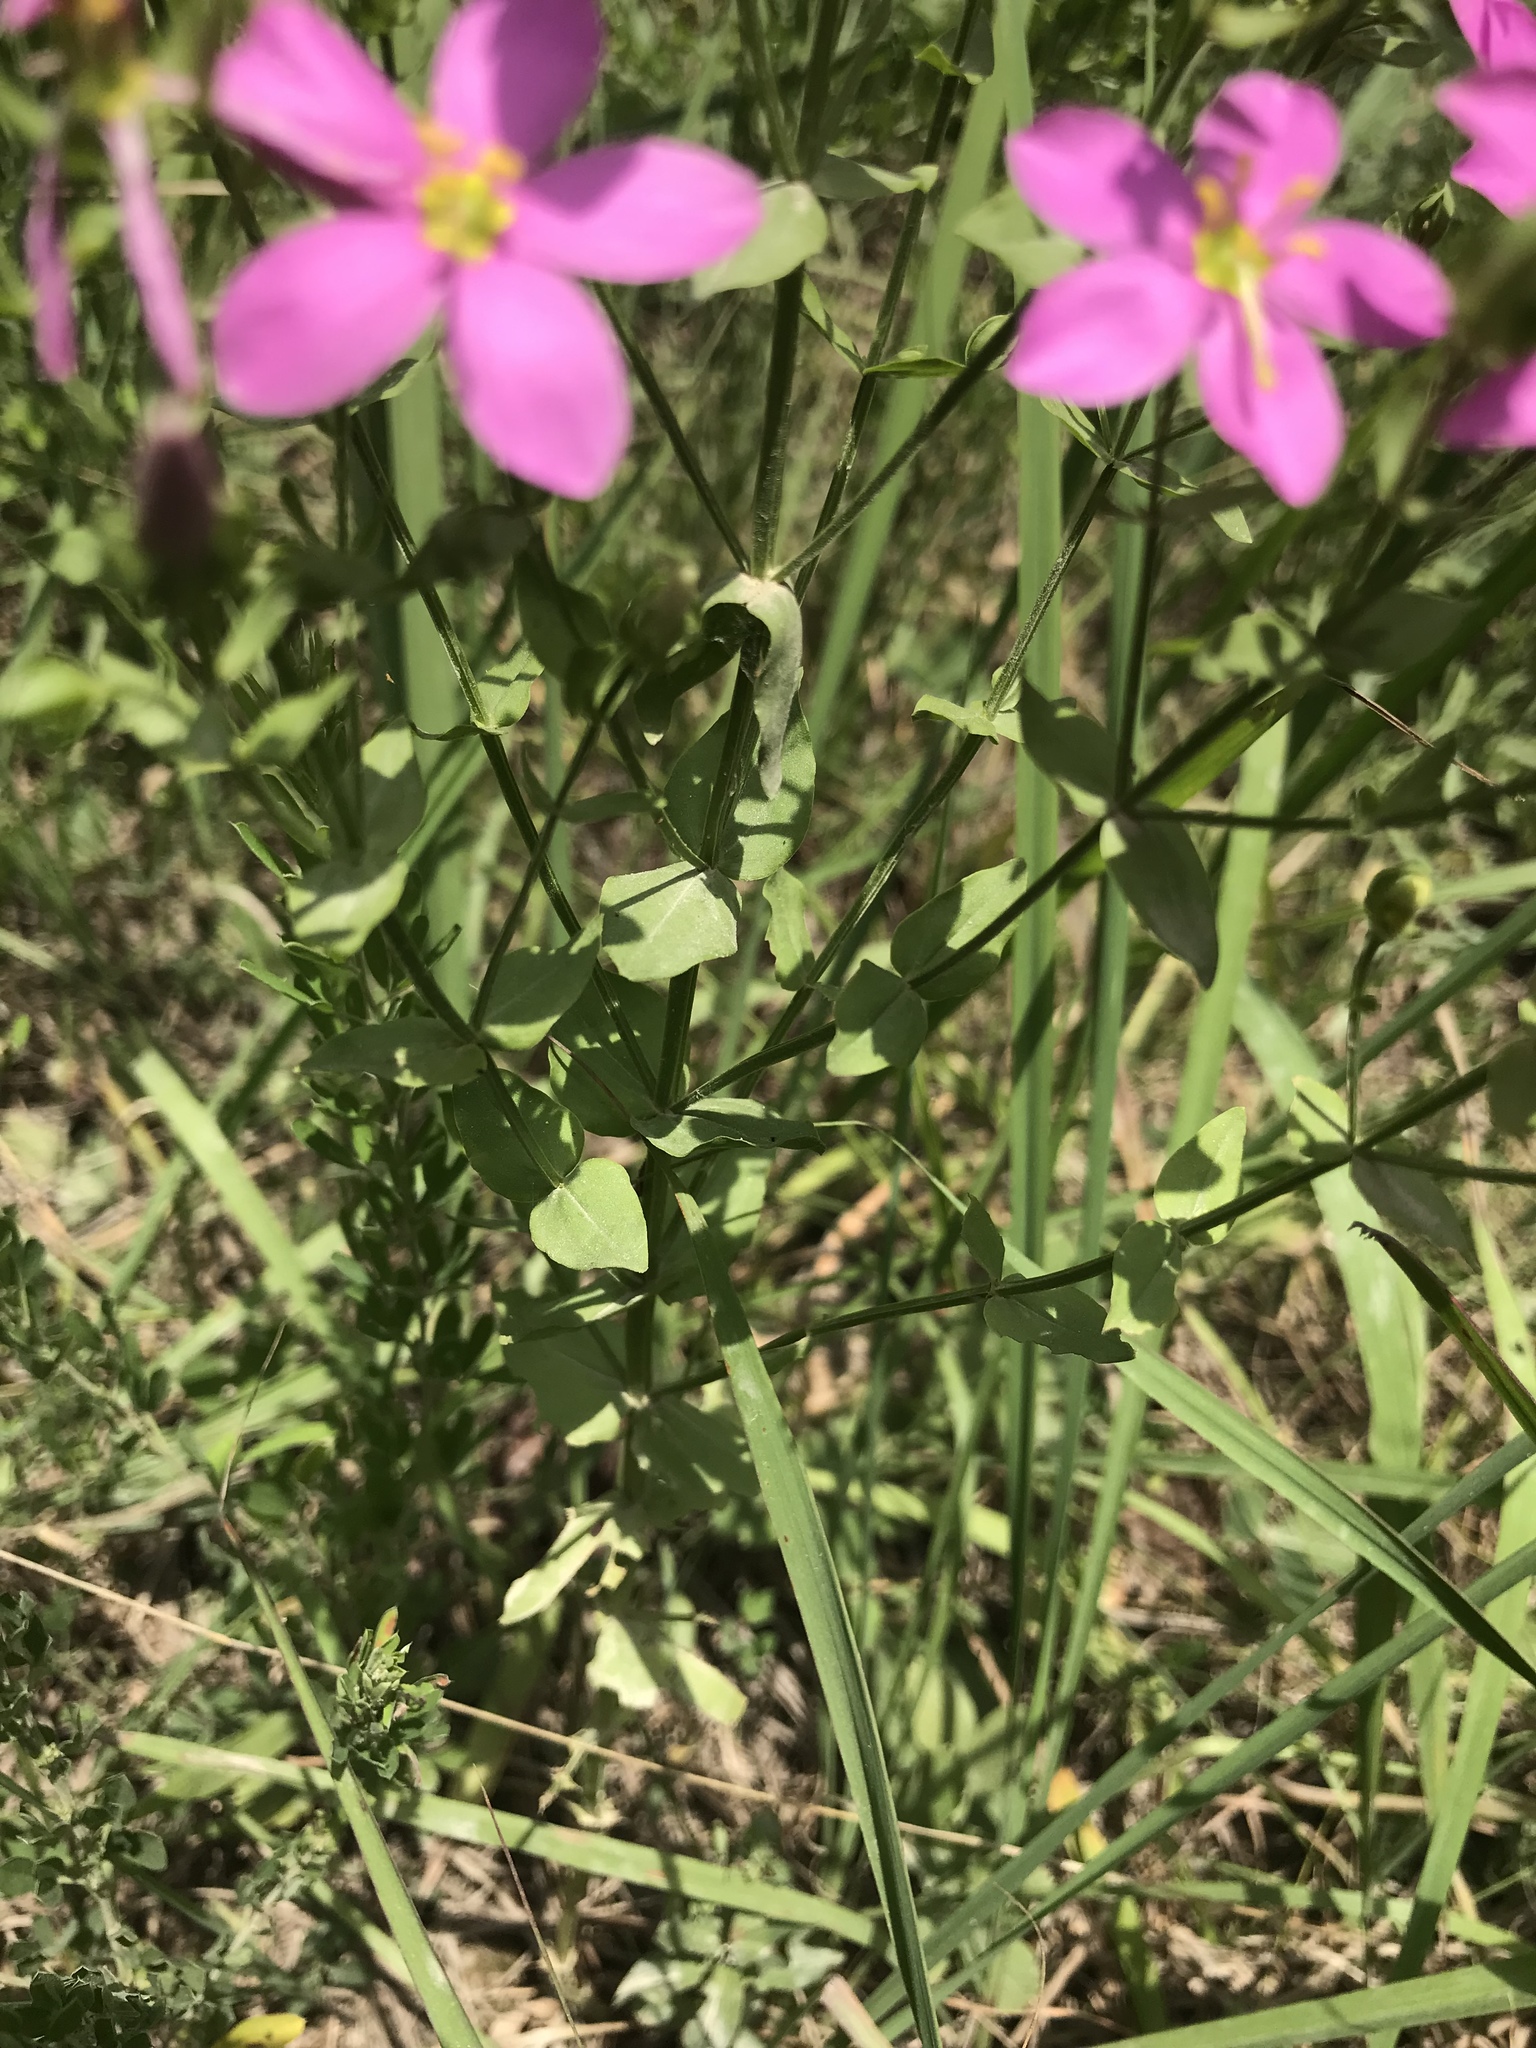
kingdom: Plantae
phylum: Tracheophyta
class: Magnoliopsida
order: Gentianales
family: Gentianaceae
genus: Sabatia
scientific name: Sabatia angularis
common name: Rose-pink
